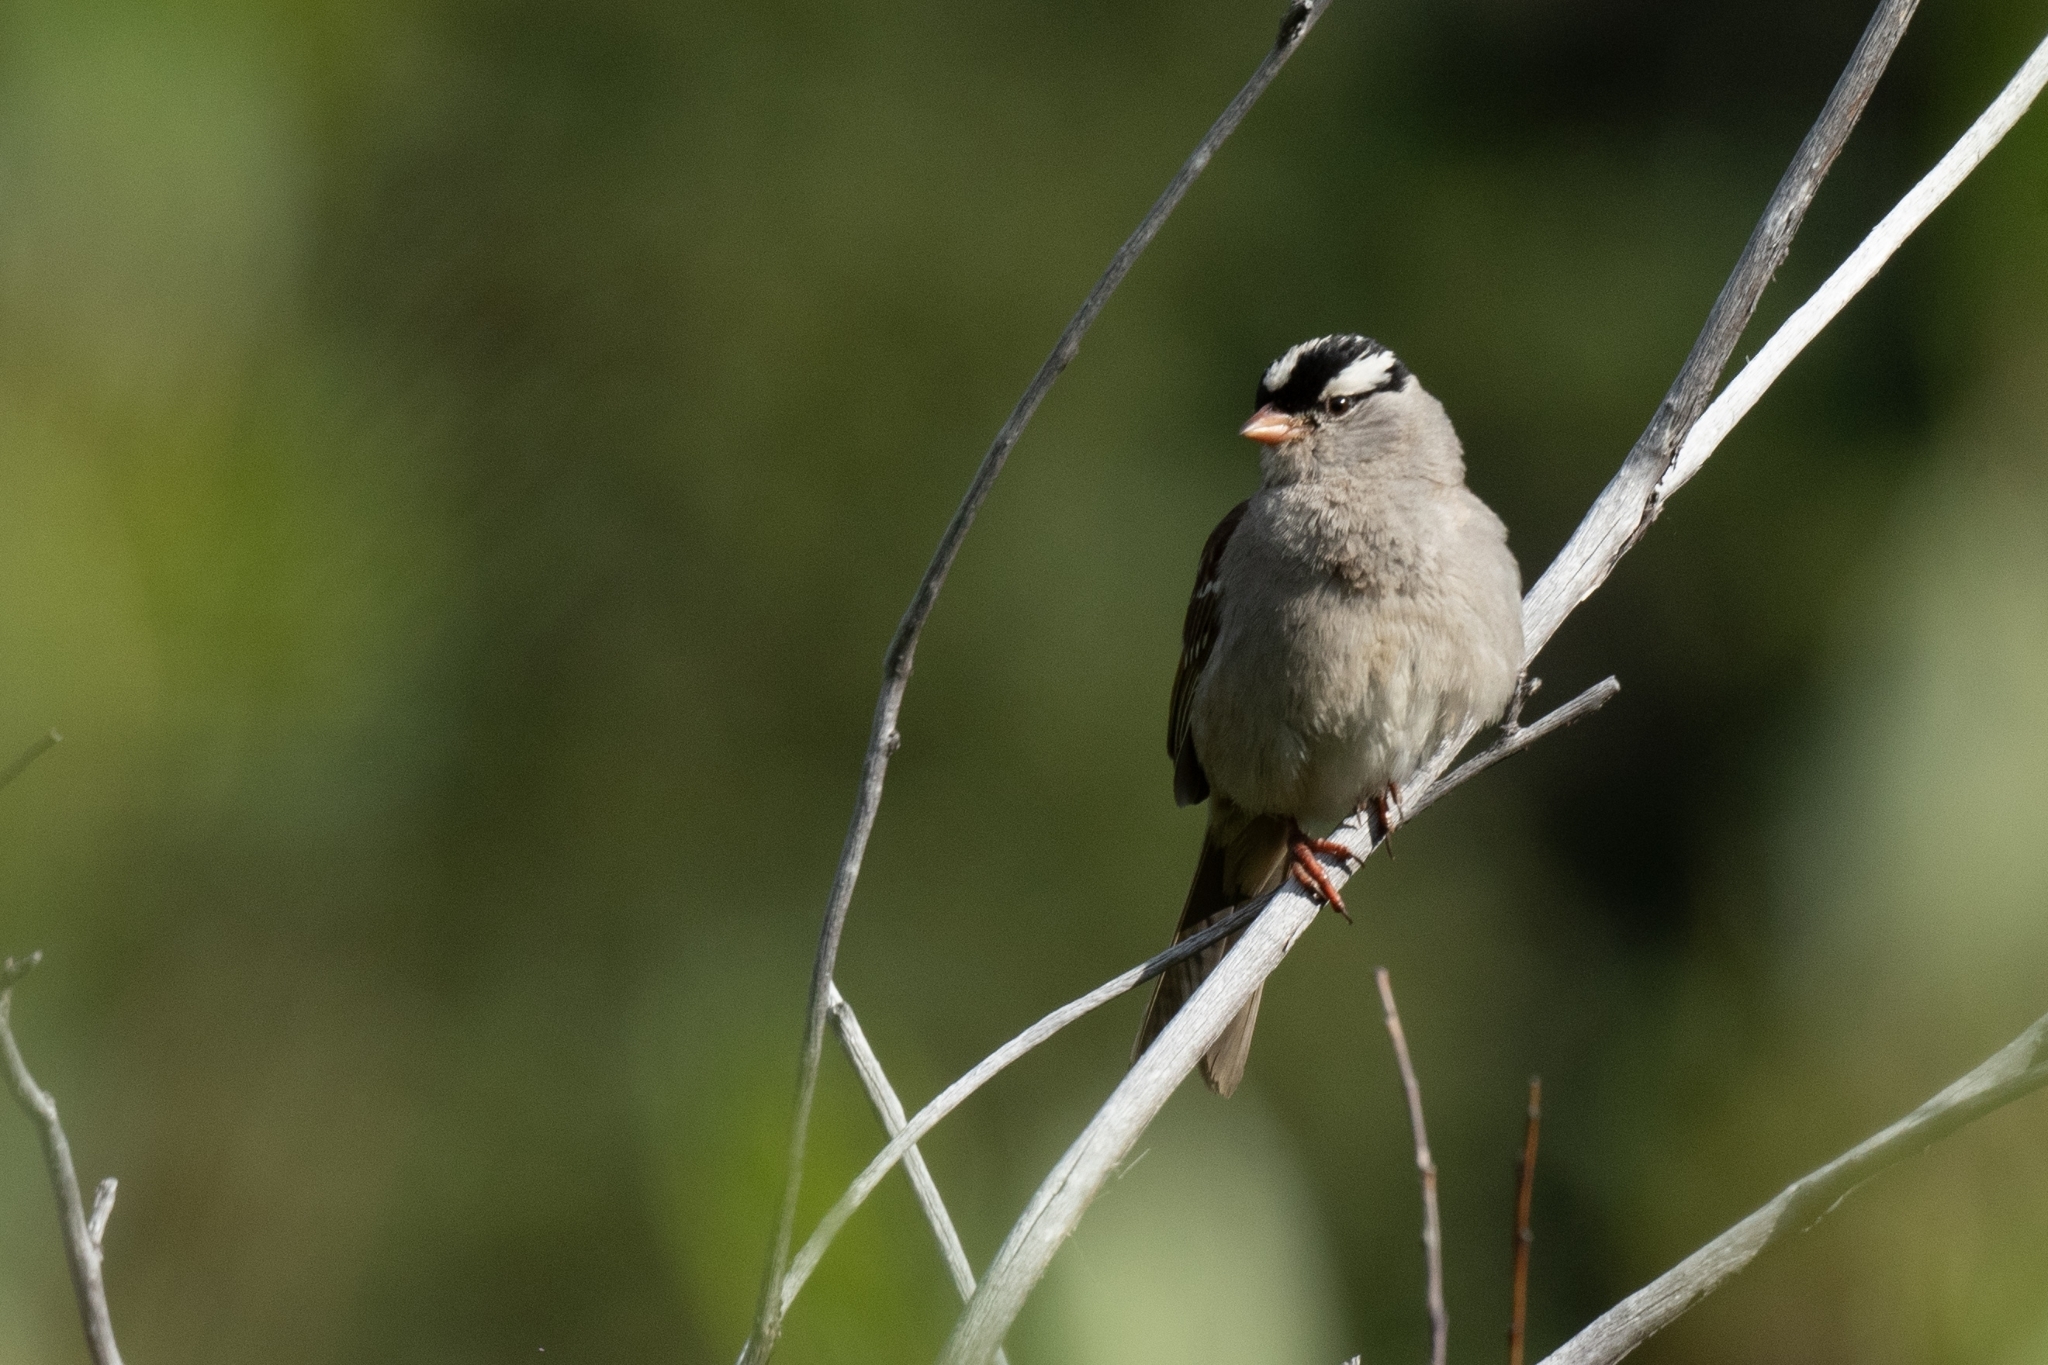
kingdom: Animalia
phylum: Chordata
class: Aves
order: Passeriformes
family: Passerellidae
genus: Zonotrichia
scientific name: Zonotrichia leucophrys
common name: White-crowned sparrow
